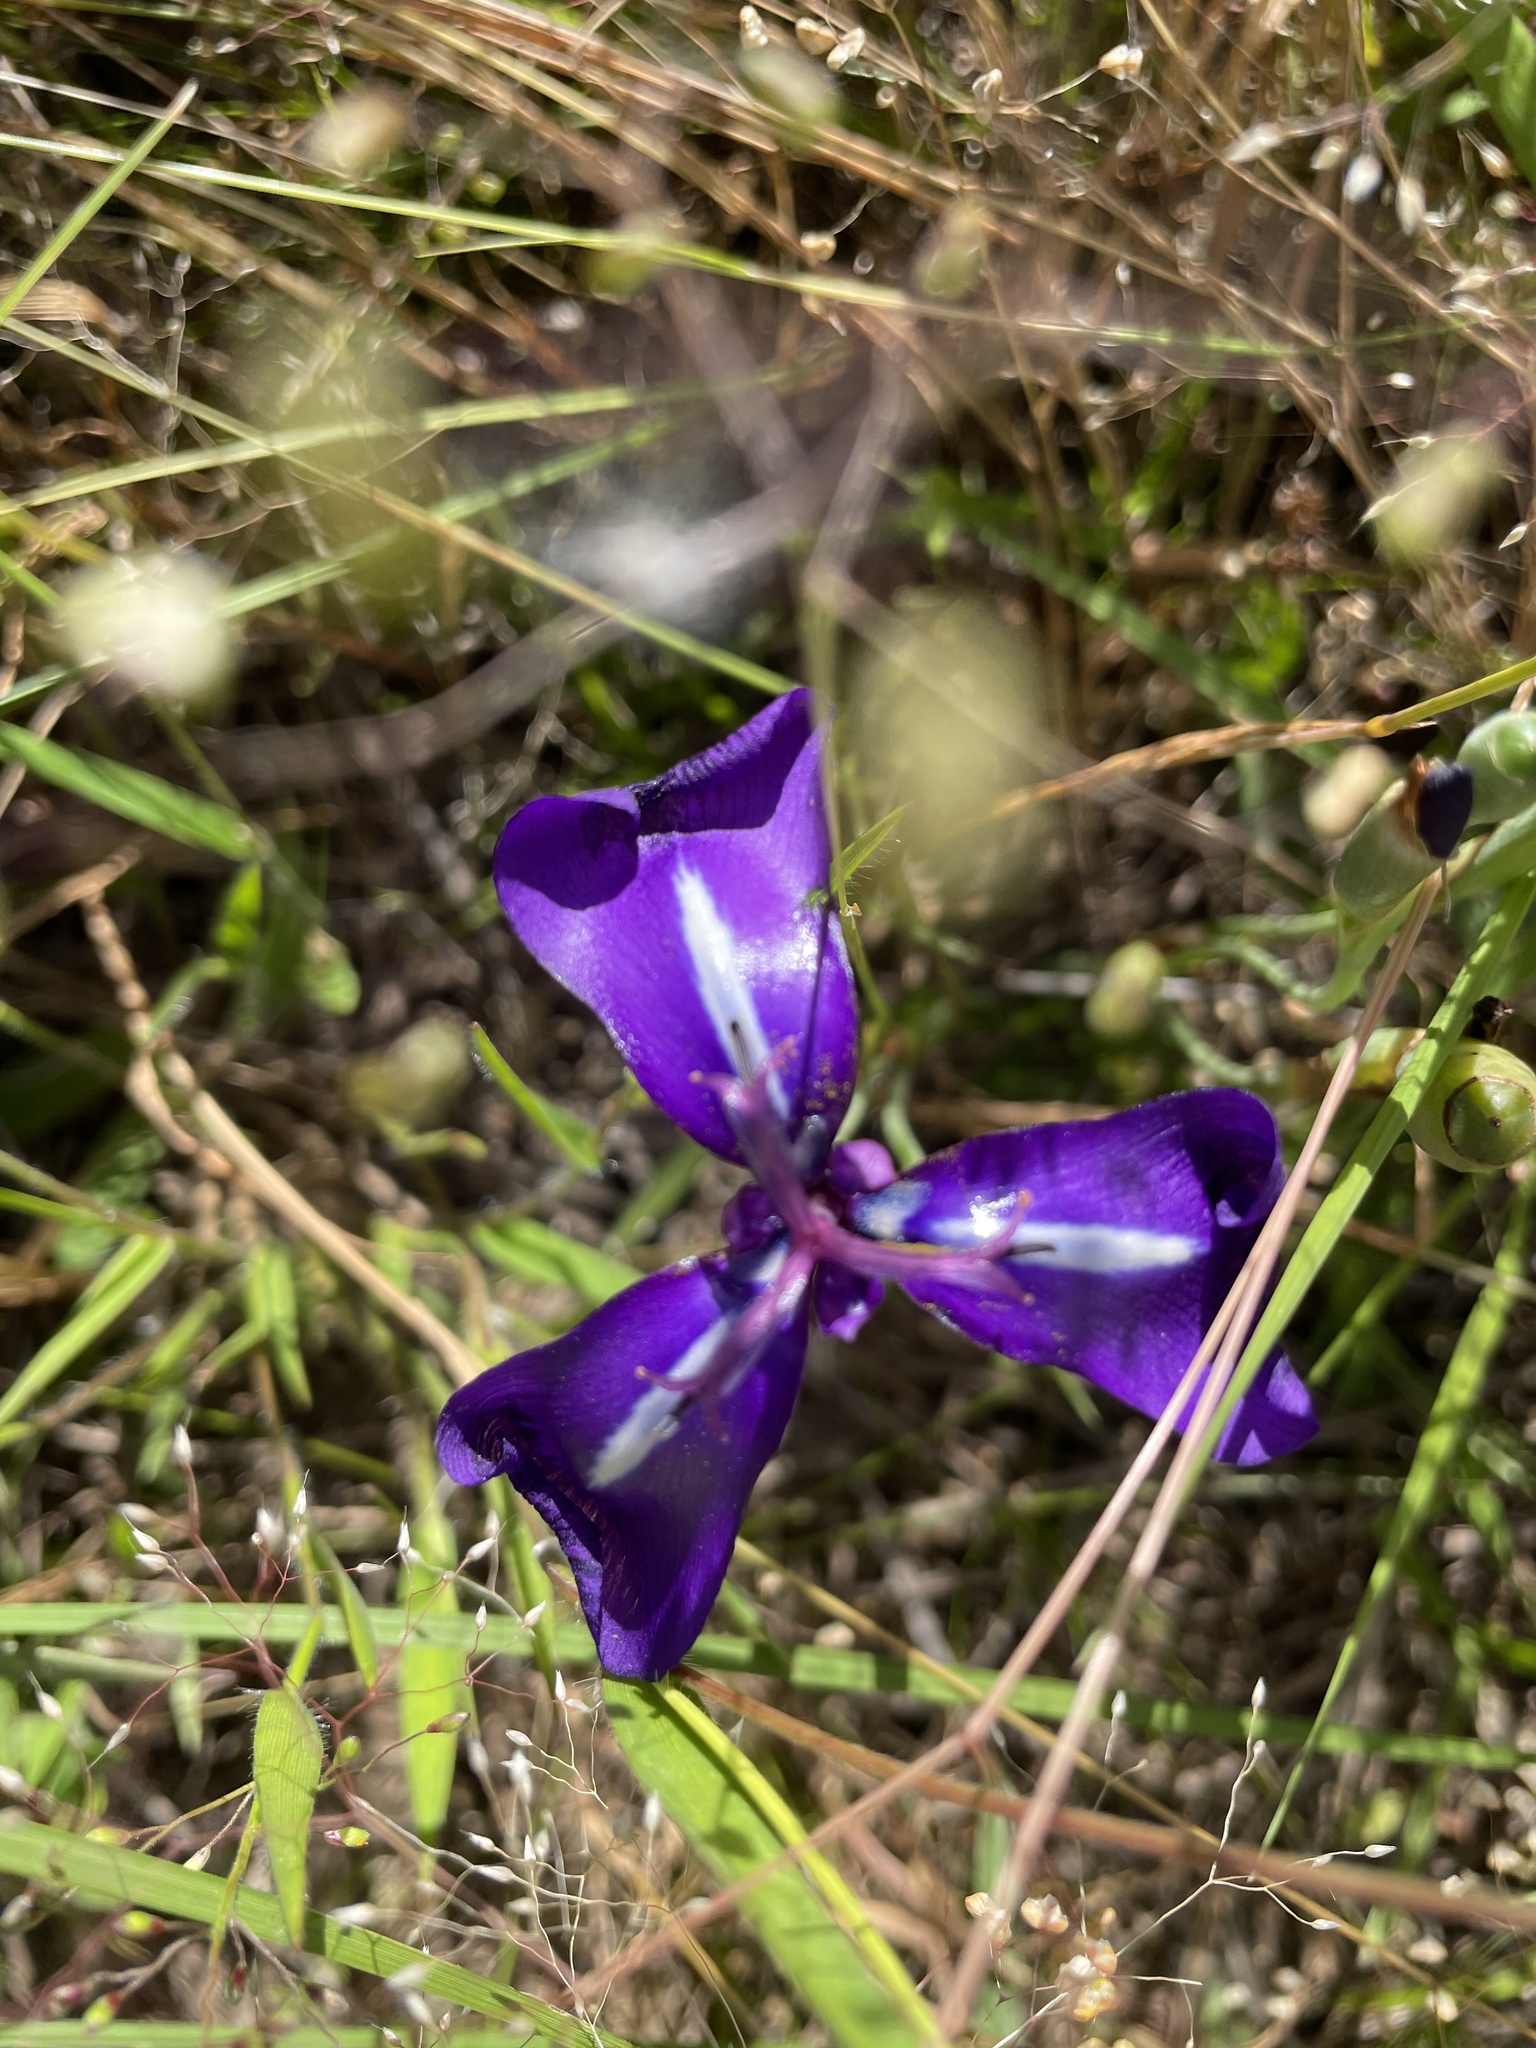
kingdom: Plantae
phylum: Tracheophyta
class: Liliopsida
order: Asparagales
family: Iridaceae
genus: Herbertia
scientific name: Herbertia pulchella
